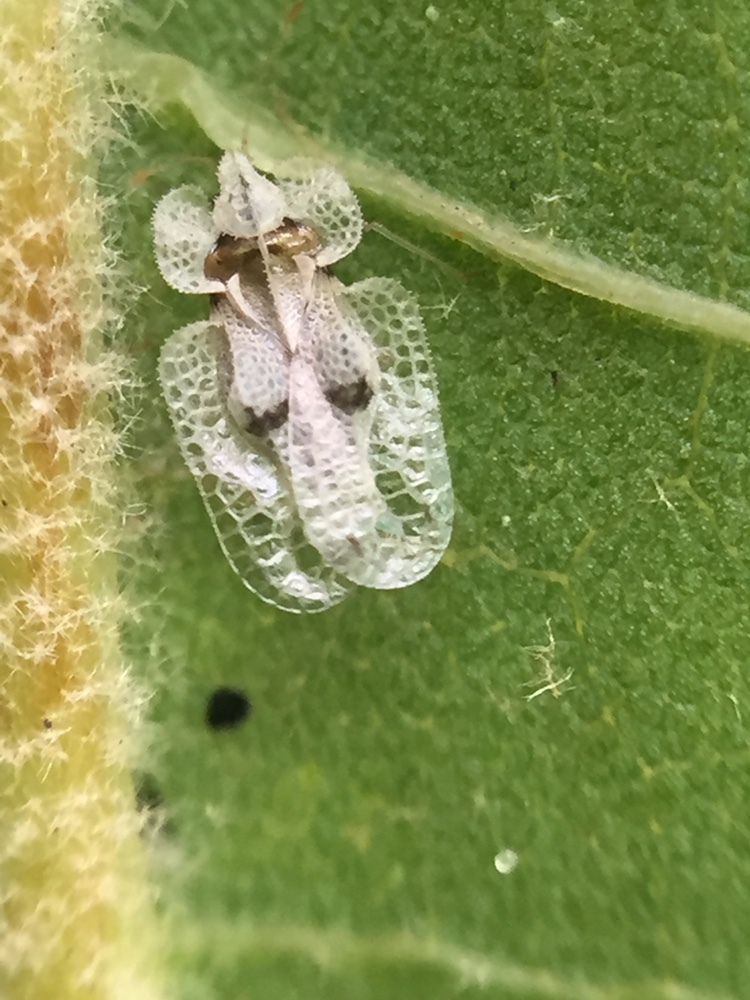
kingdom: Animalia
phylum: Arthropoda
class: Insecta
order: Hemiptera
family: Tingidae
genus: Corythucha
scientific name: Corythucha ciliata
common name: Sycamore lace bug
